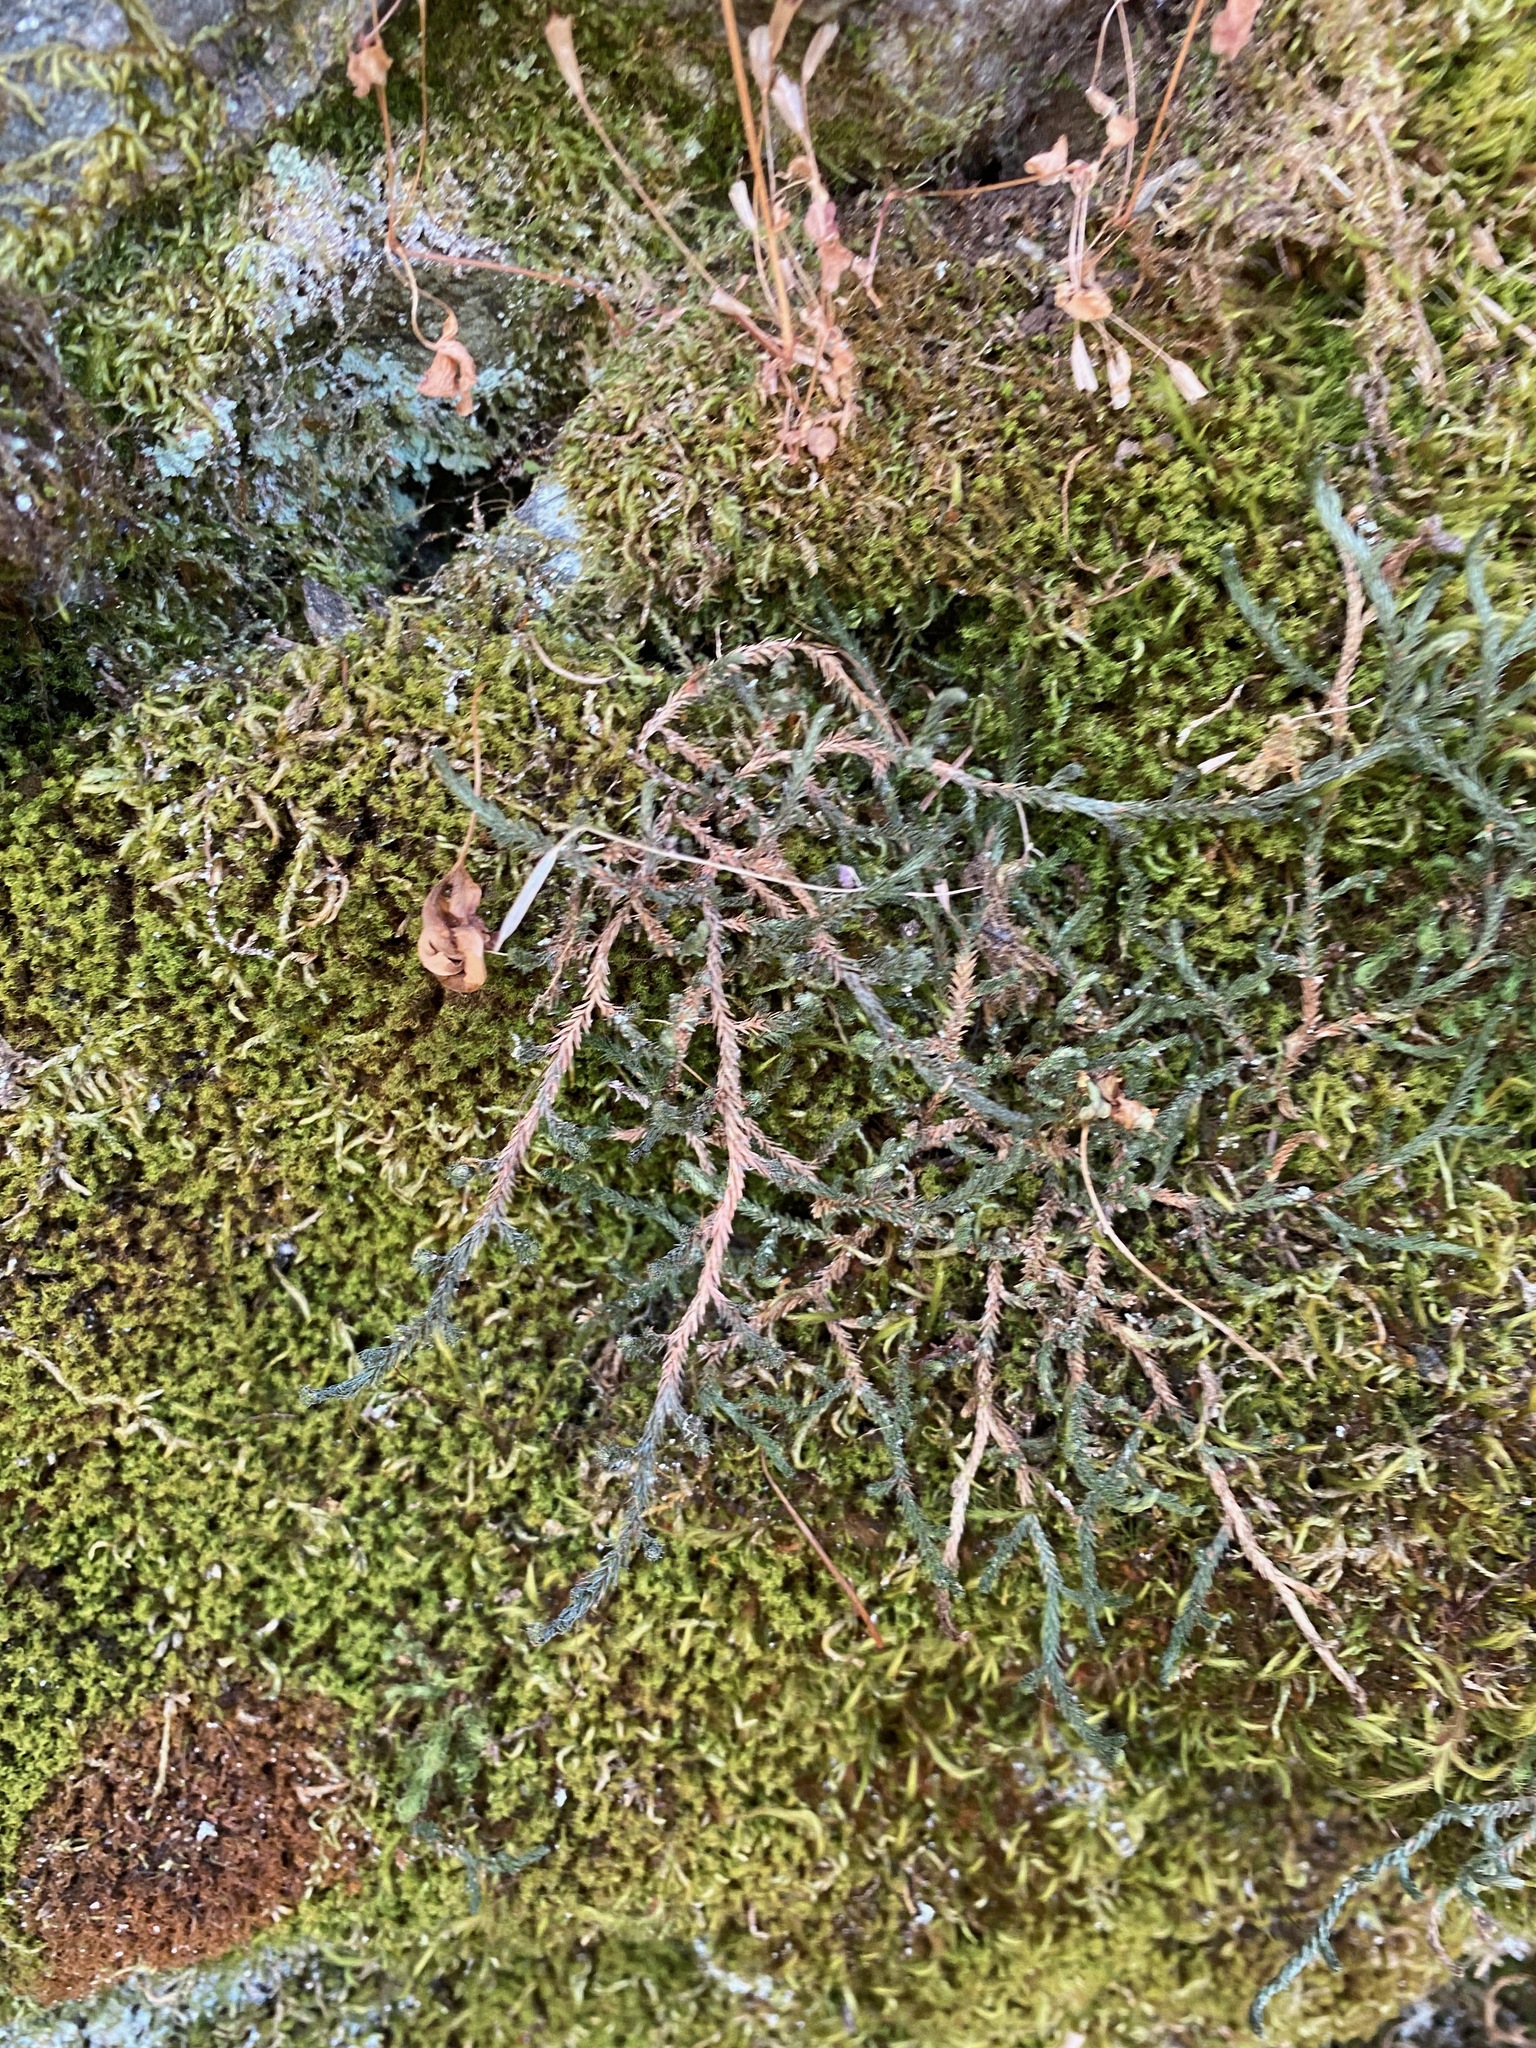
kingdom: Plantae
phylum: Tracheophyta
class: Lycopodiopsida
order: Selaginellales
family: Selaginellaceae
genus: Selaginella
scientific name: Selaginella wallacei
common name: Wallace's selaginella
